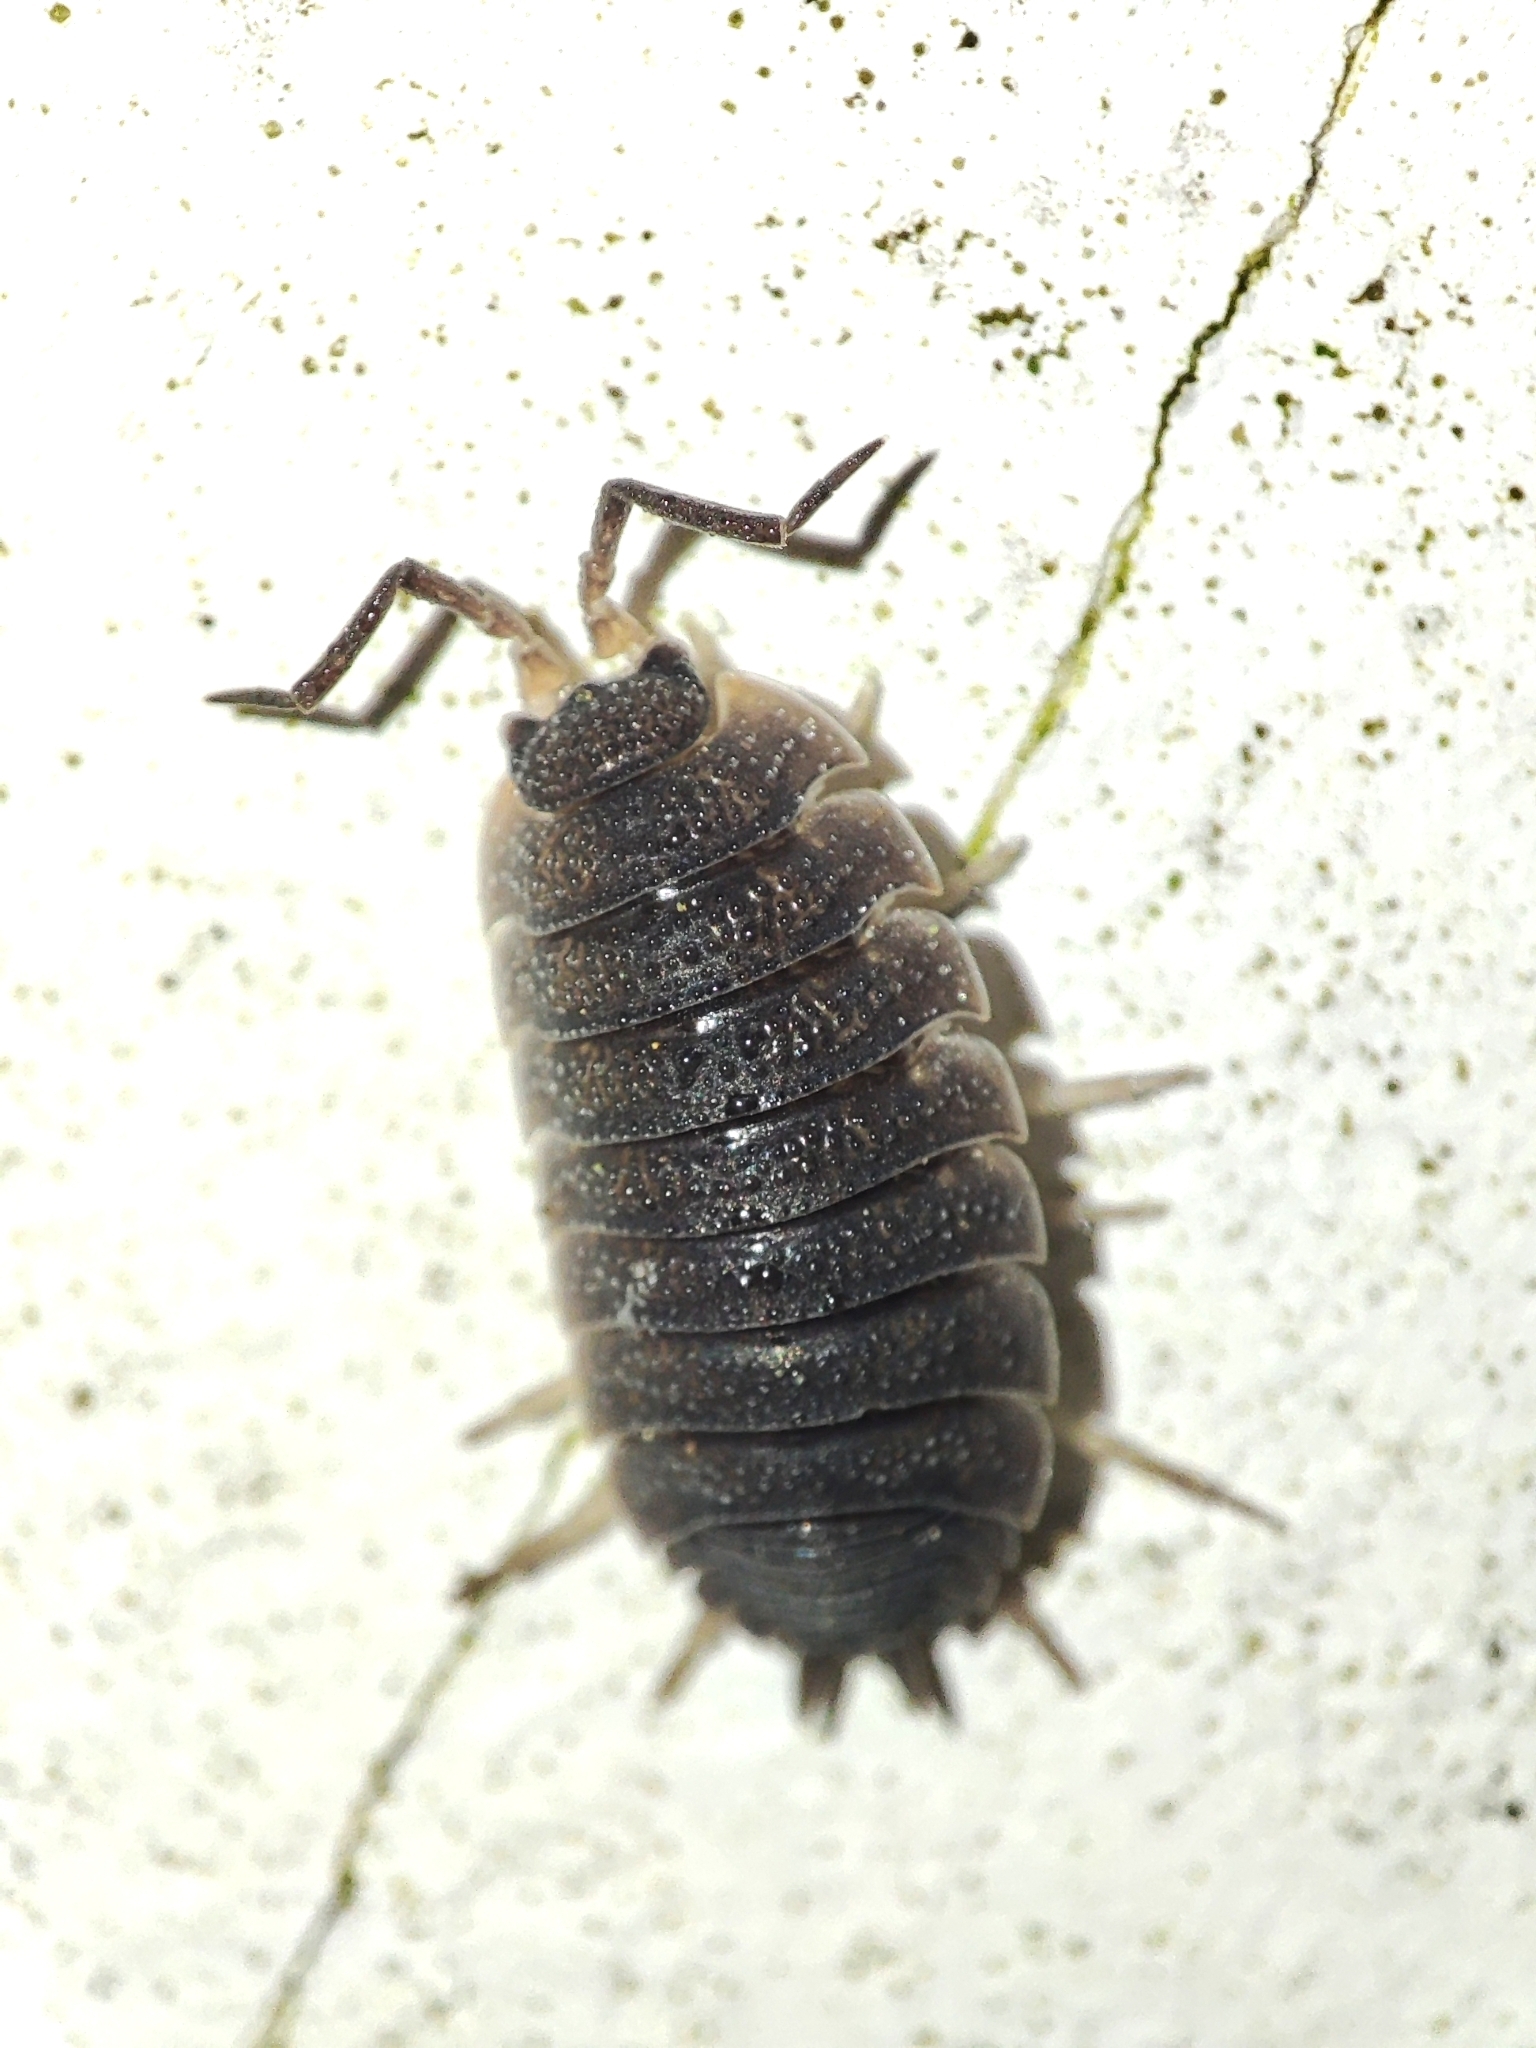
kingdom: Animalia
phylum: Arthropoda
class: Malacostraca
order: Isopoda
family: Porcellionidae
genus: Porcellio
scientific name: Porcellio scaber
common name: Common rough woodlouse
